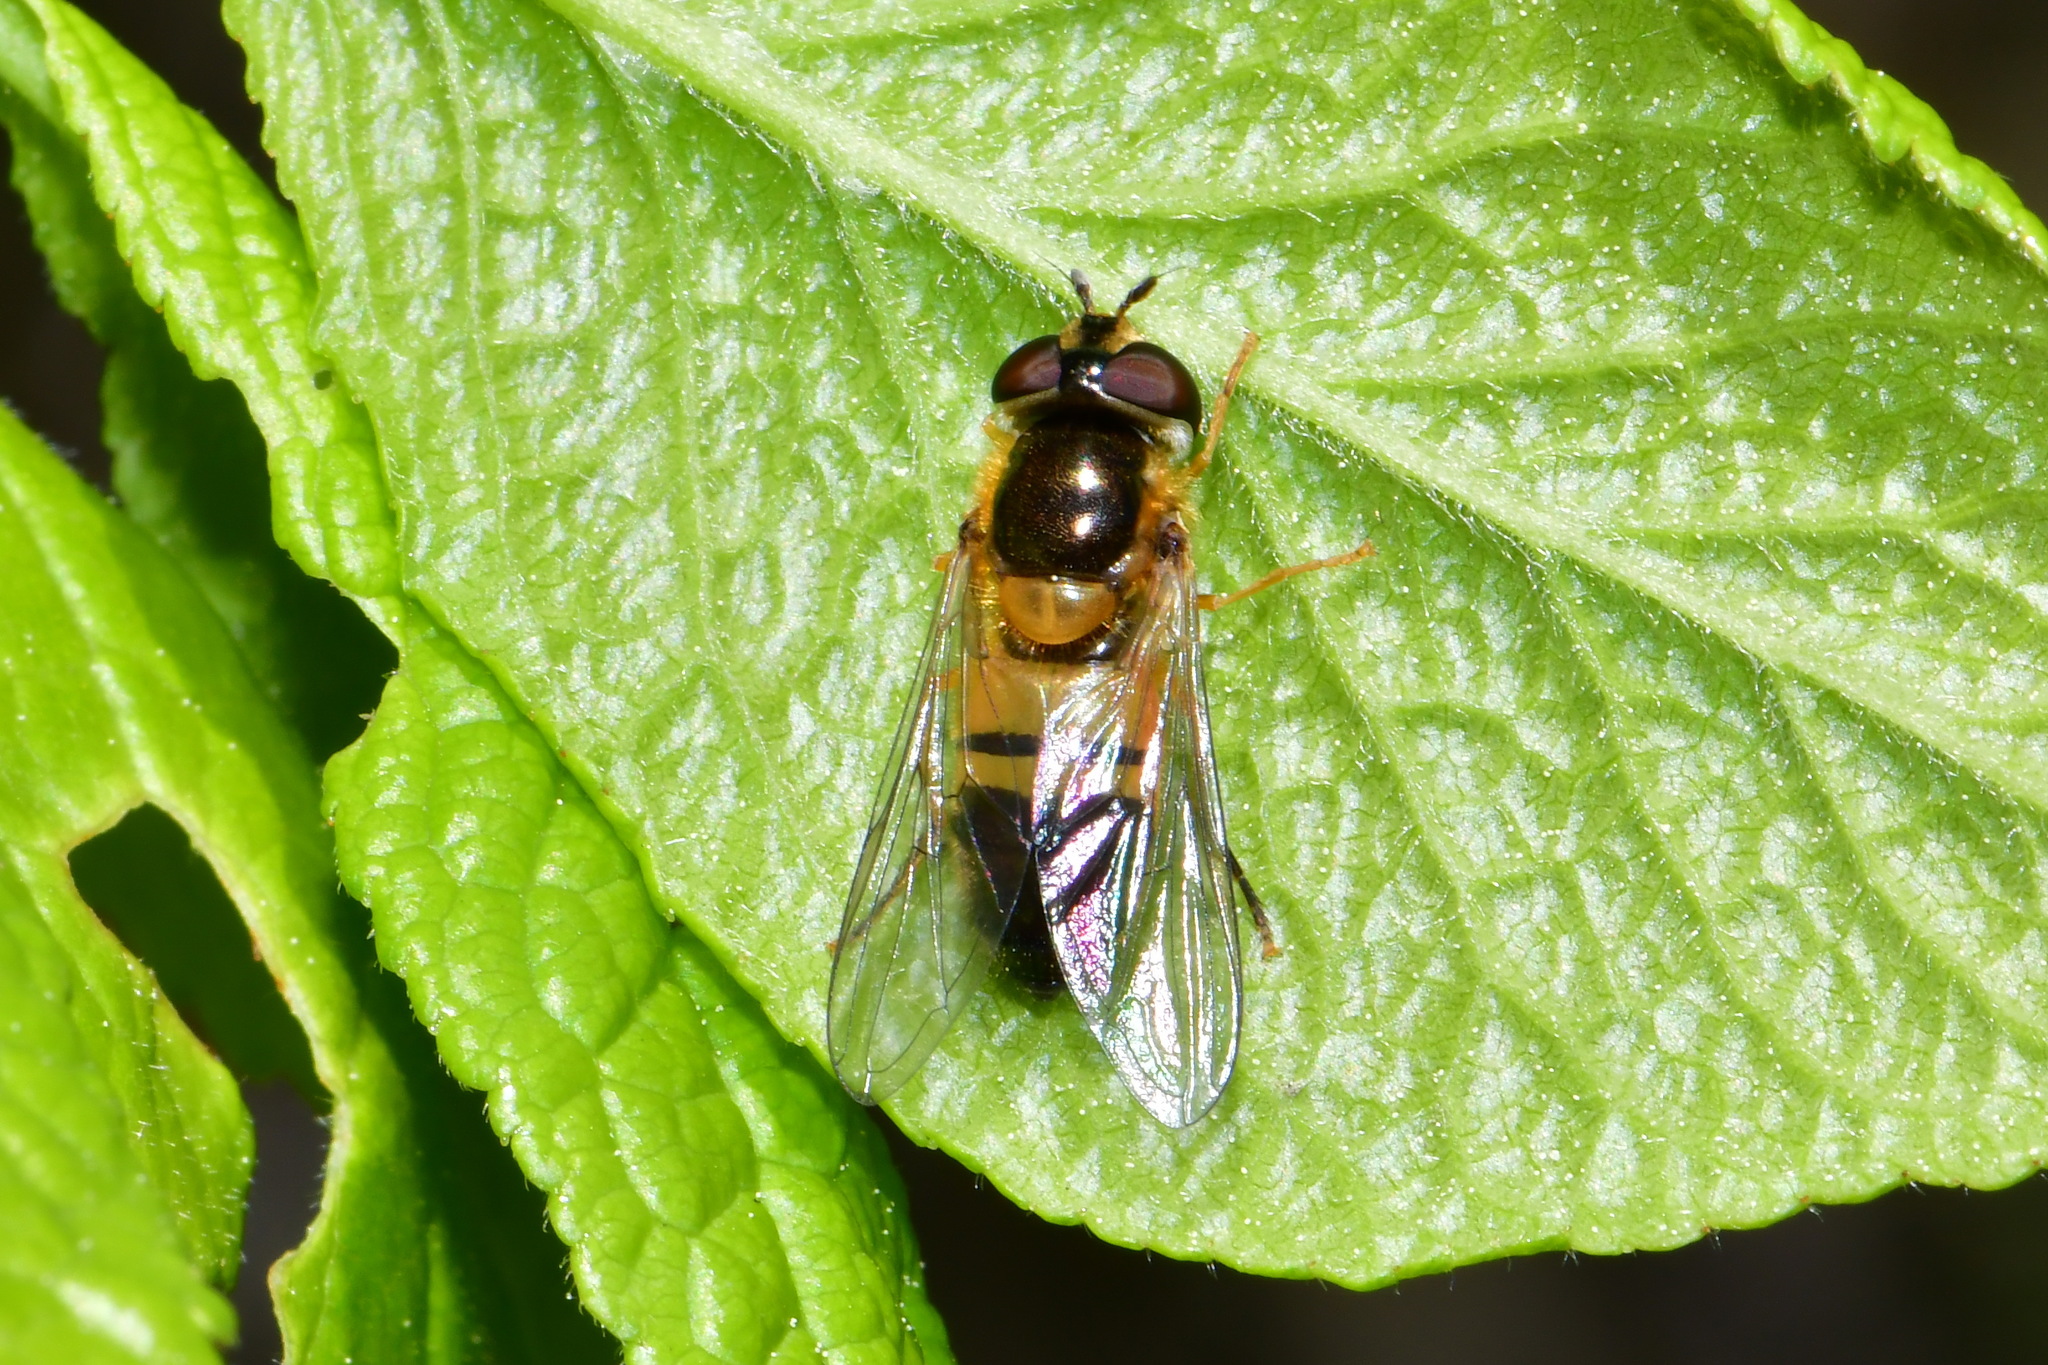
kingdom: Animalia
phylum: Arthropoda
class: Insecta
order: Diptera
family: Syrphidae
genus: Epistrophe
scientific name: Epistrophe eligans
